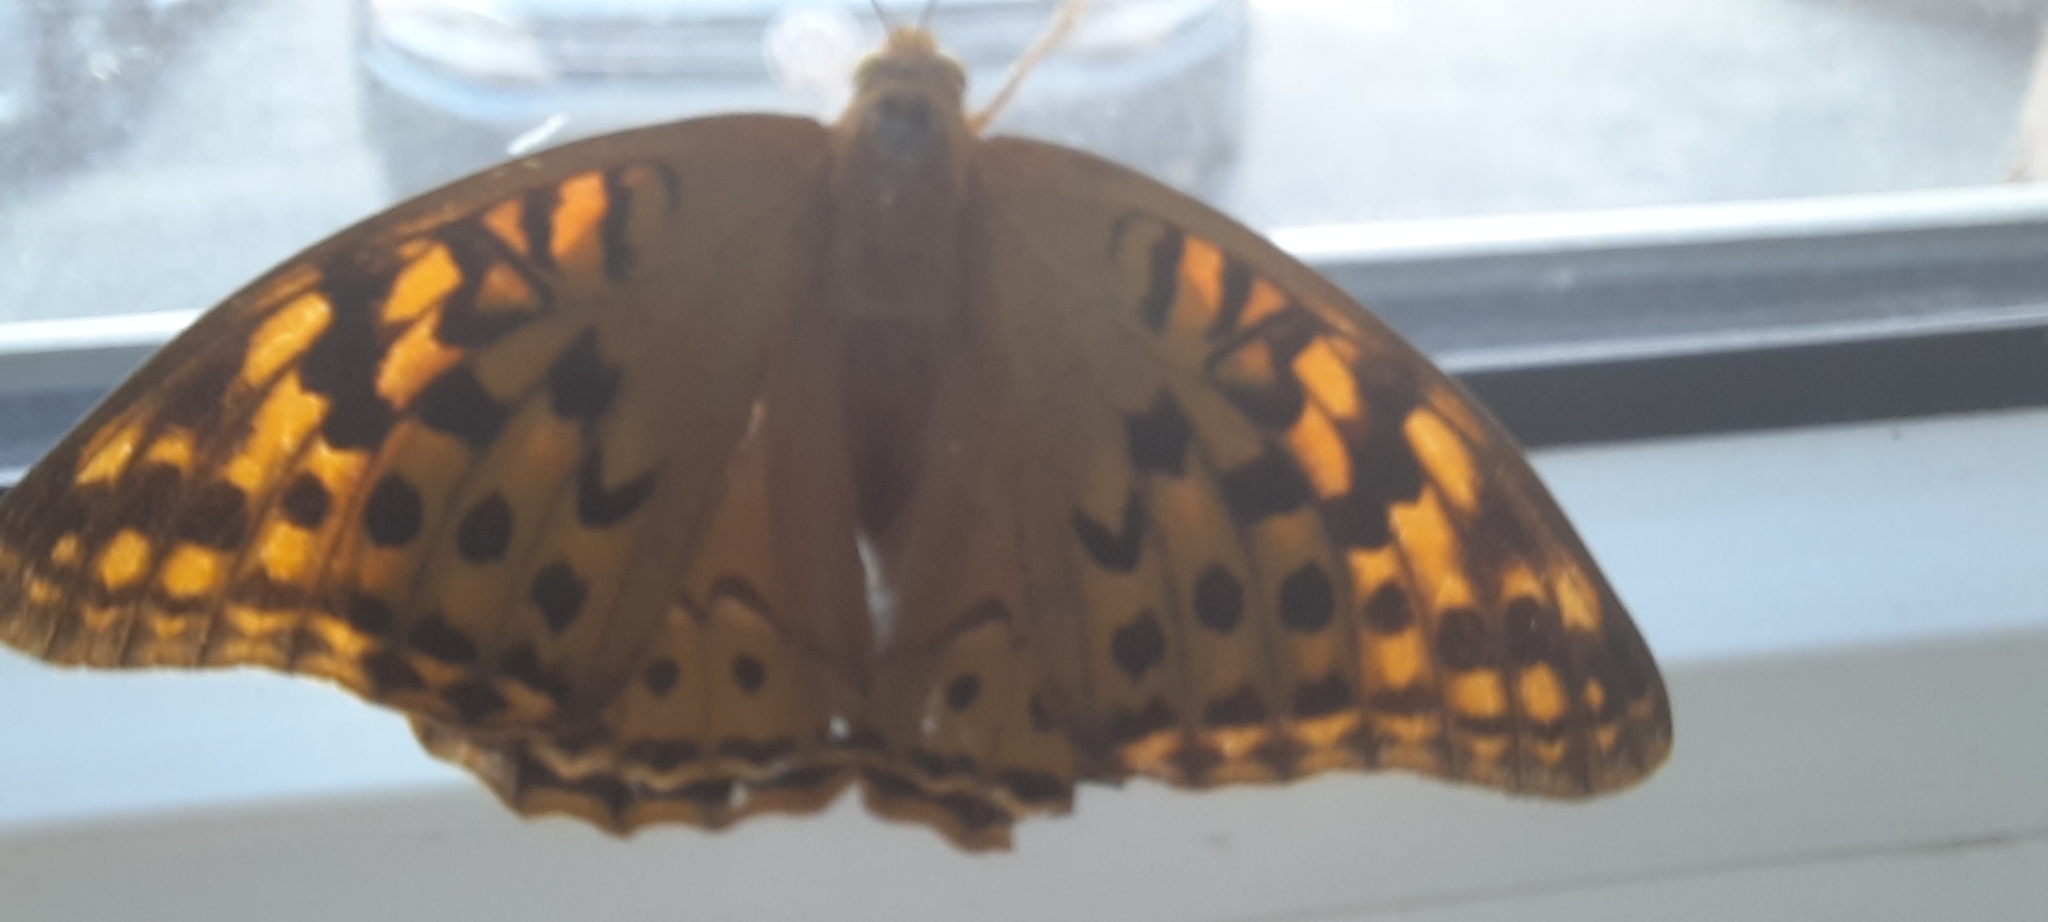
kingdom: Animalia
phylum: Arthropoda
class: Insecta
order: Lepidoptera
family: Nymphalidae
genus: Damora
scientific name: Damora pandora
